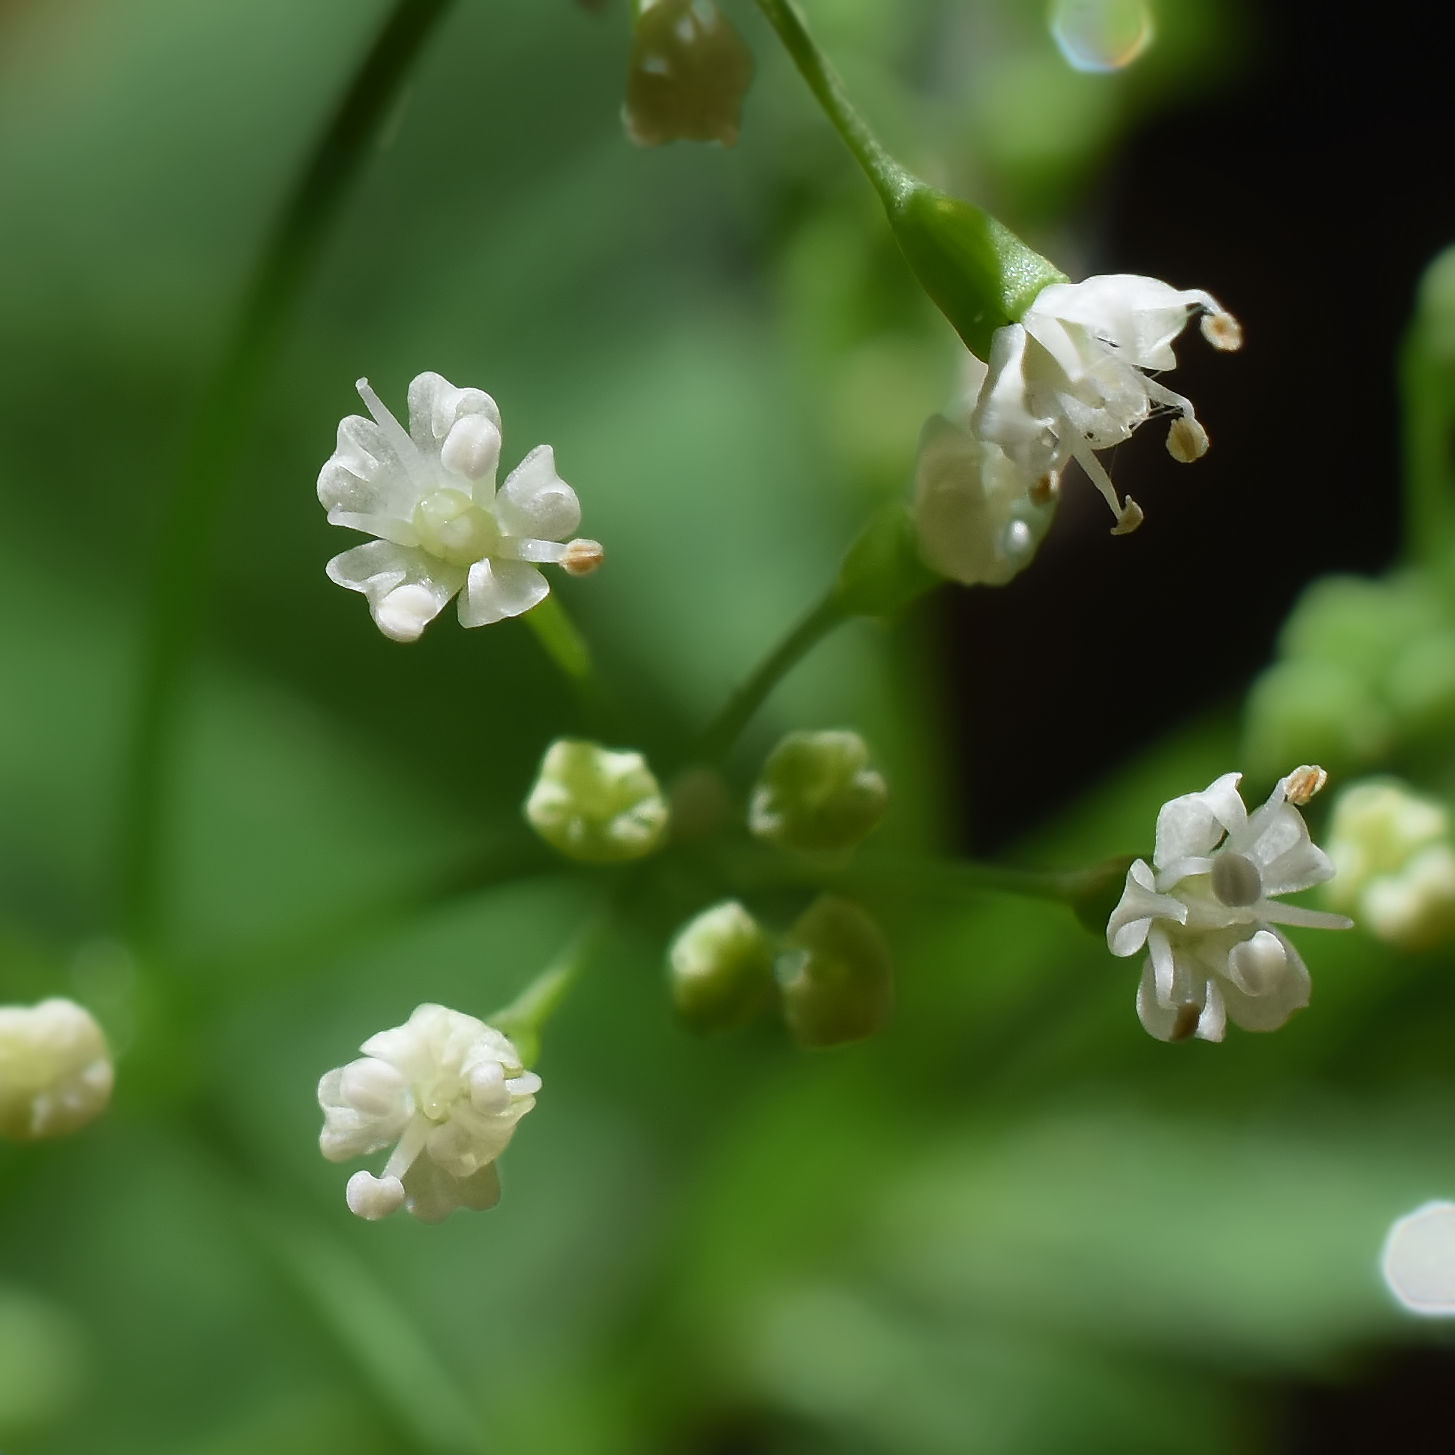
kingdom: Plantae
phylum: Tracheophyta
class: Magnoliopsida
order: Apiales
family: Apiaceae
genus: Cryptotaenia
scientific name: Cryptotaenia canadensis
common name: Honewort
